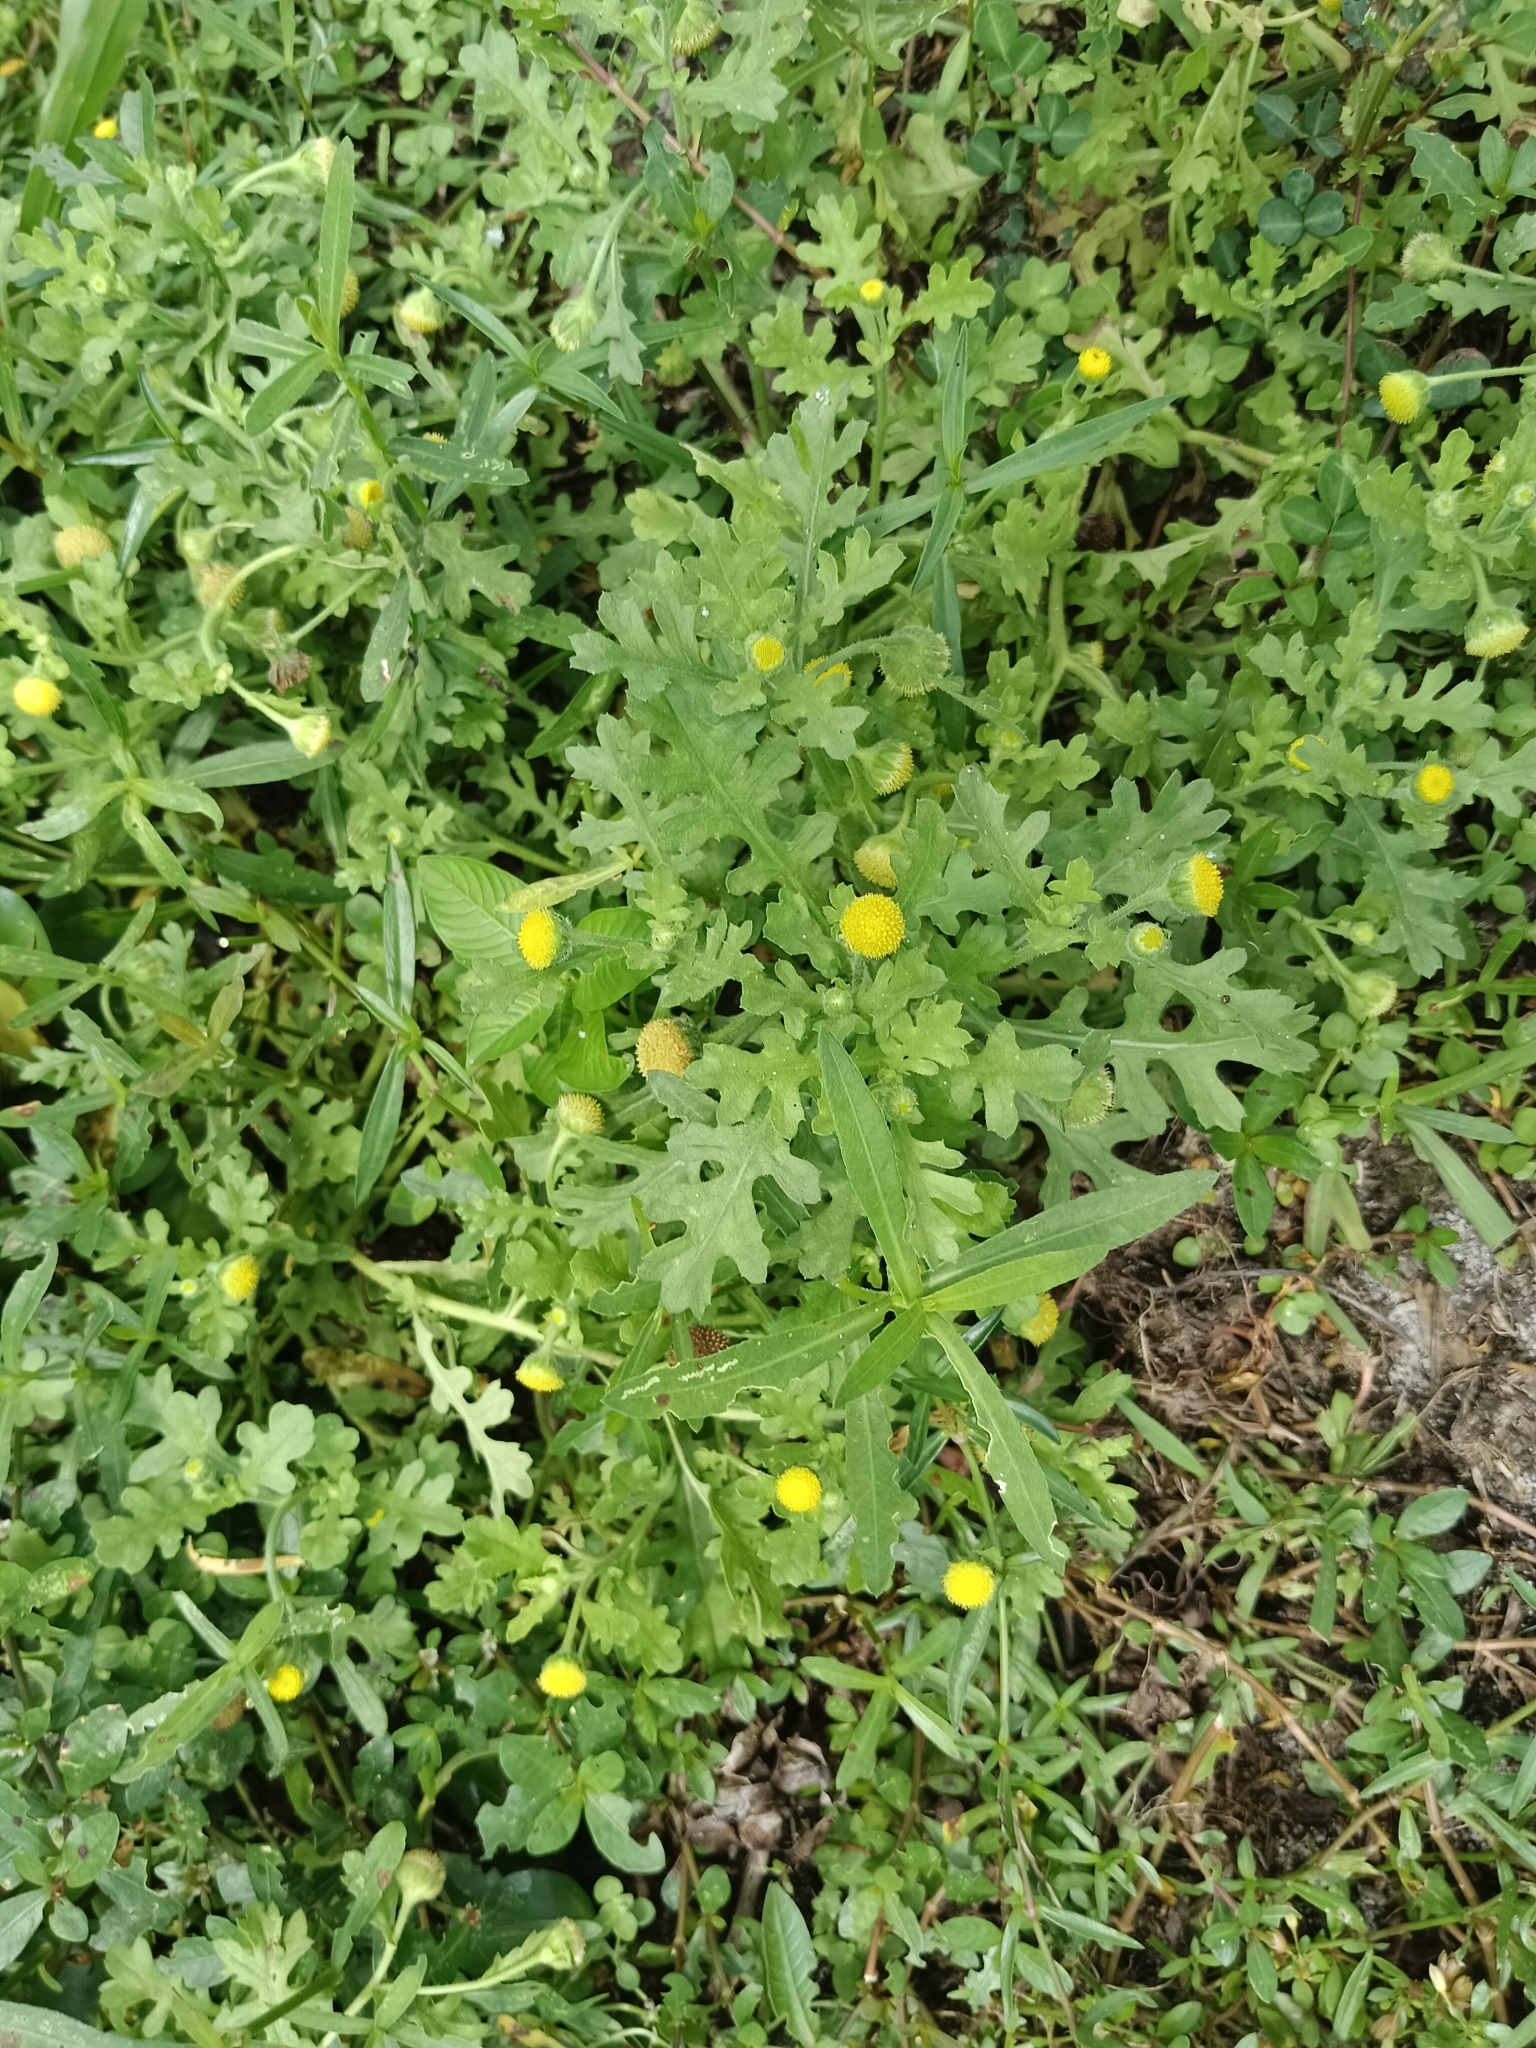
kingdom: Plantae
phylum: Tracheophyta
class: Magnoliopsida
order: Asterales
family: Asteraceae
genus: Grangea
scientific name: Grangea maderaspatana
